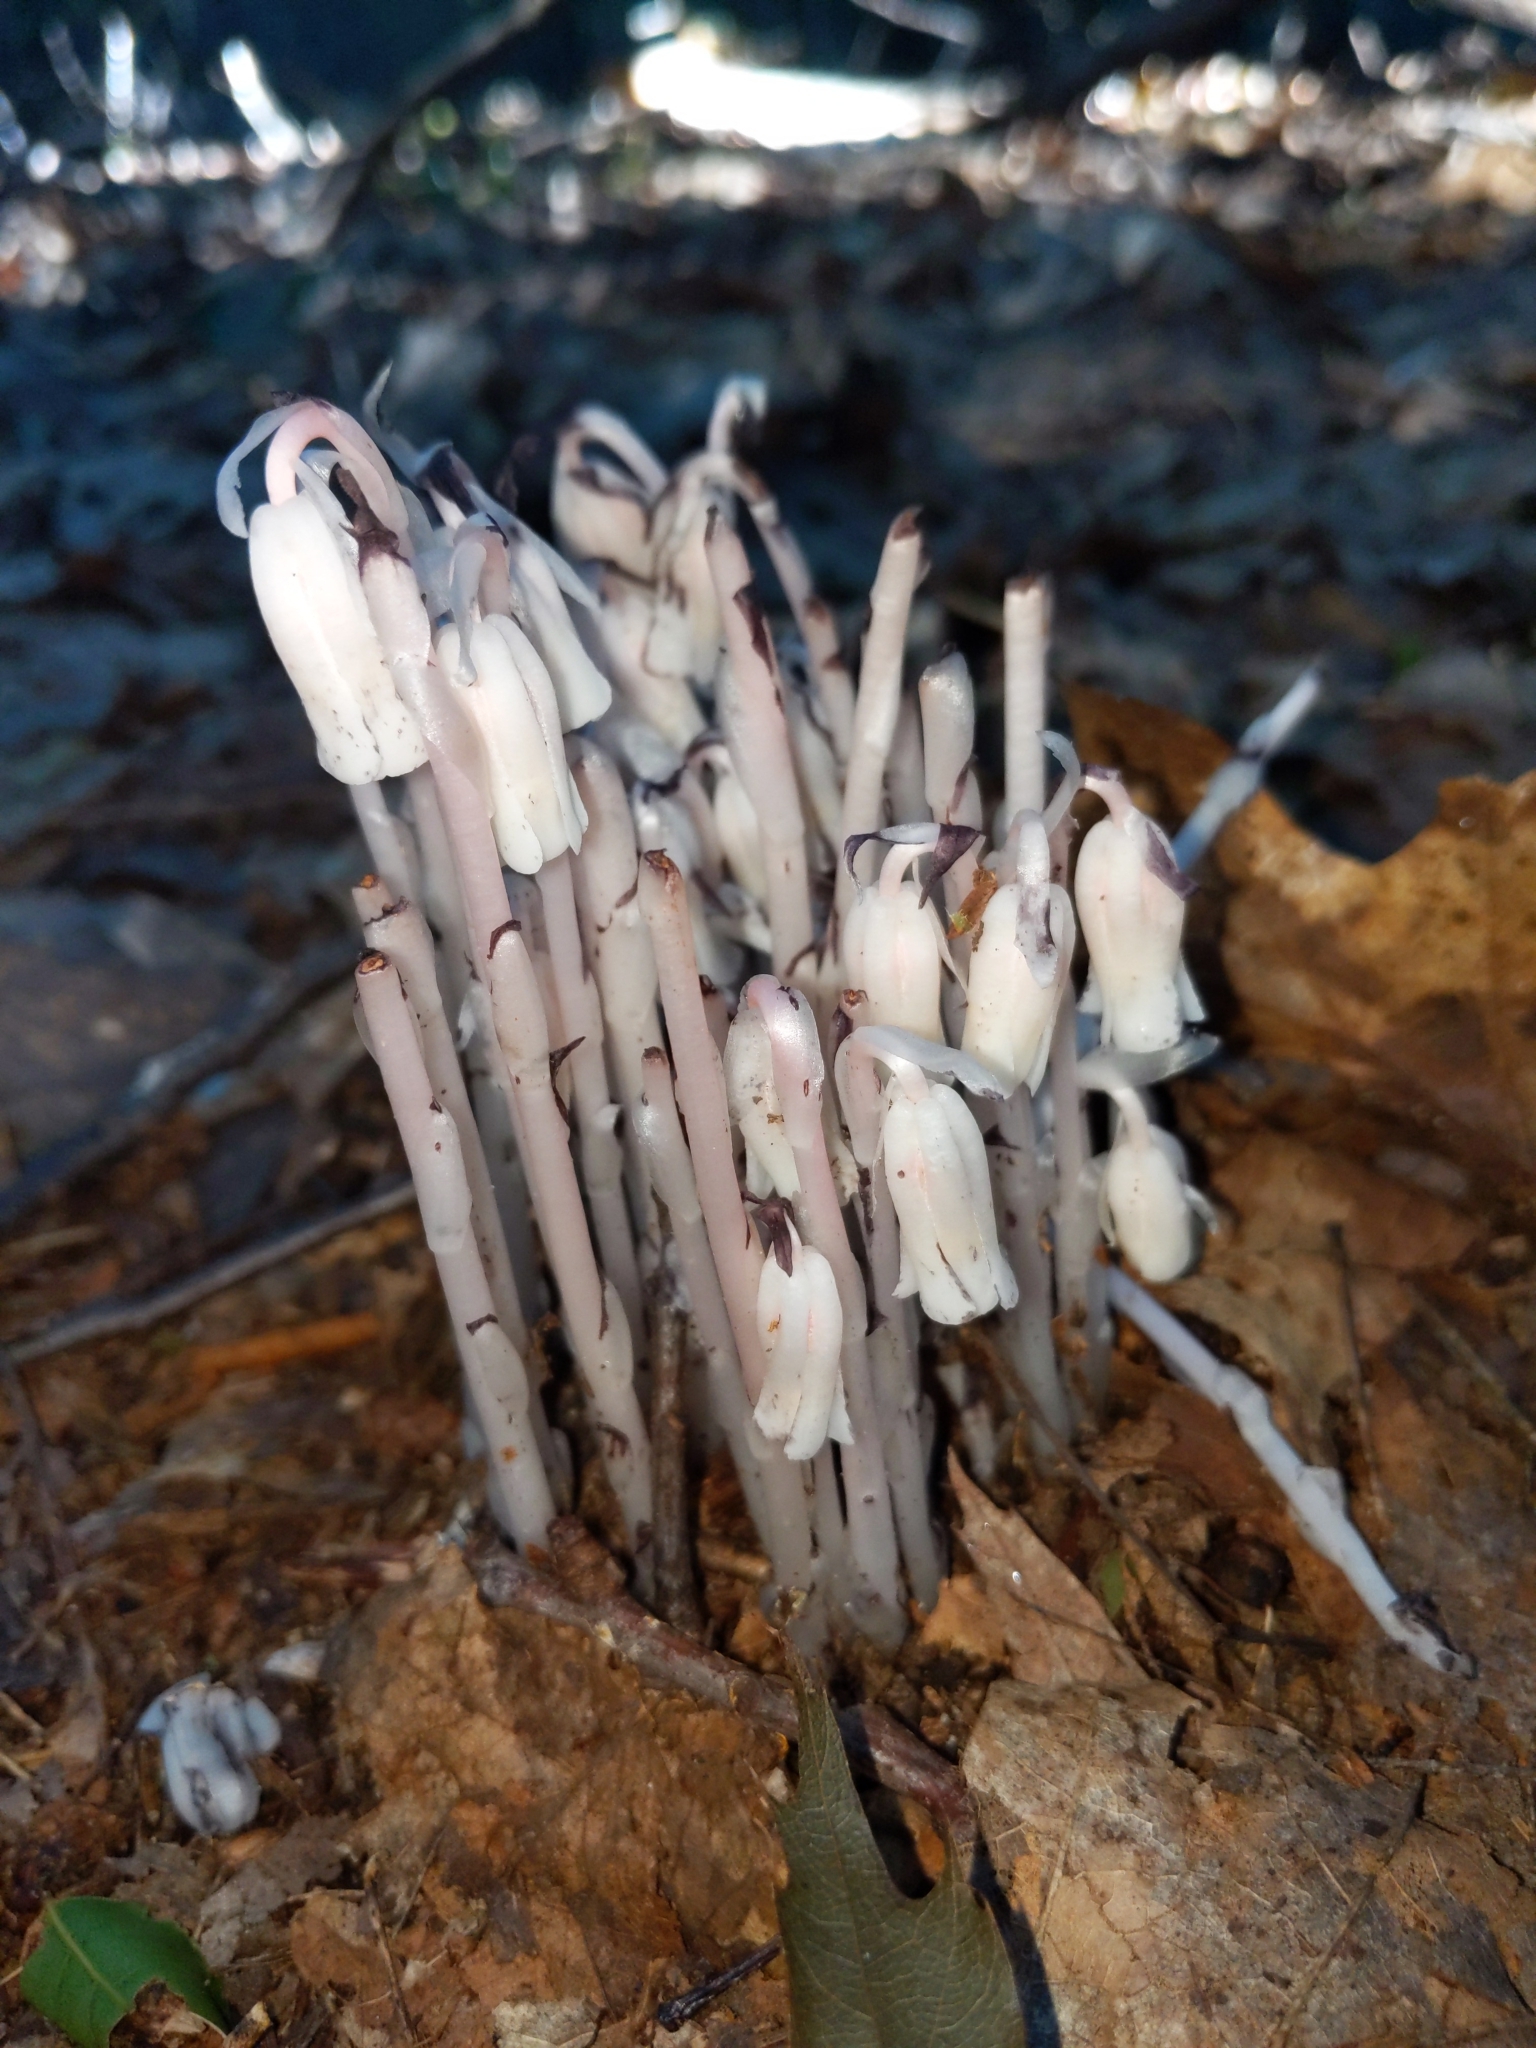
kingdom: Plantae
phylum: Tracheophyta
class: Magnoliopsida
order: Ericales
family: Ericaceae
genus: Monotropa
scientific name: Monotropa uniflora
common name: Convulsion root
